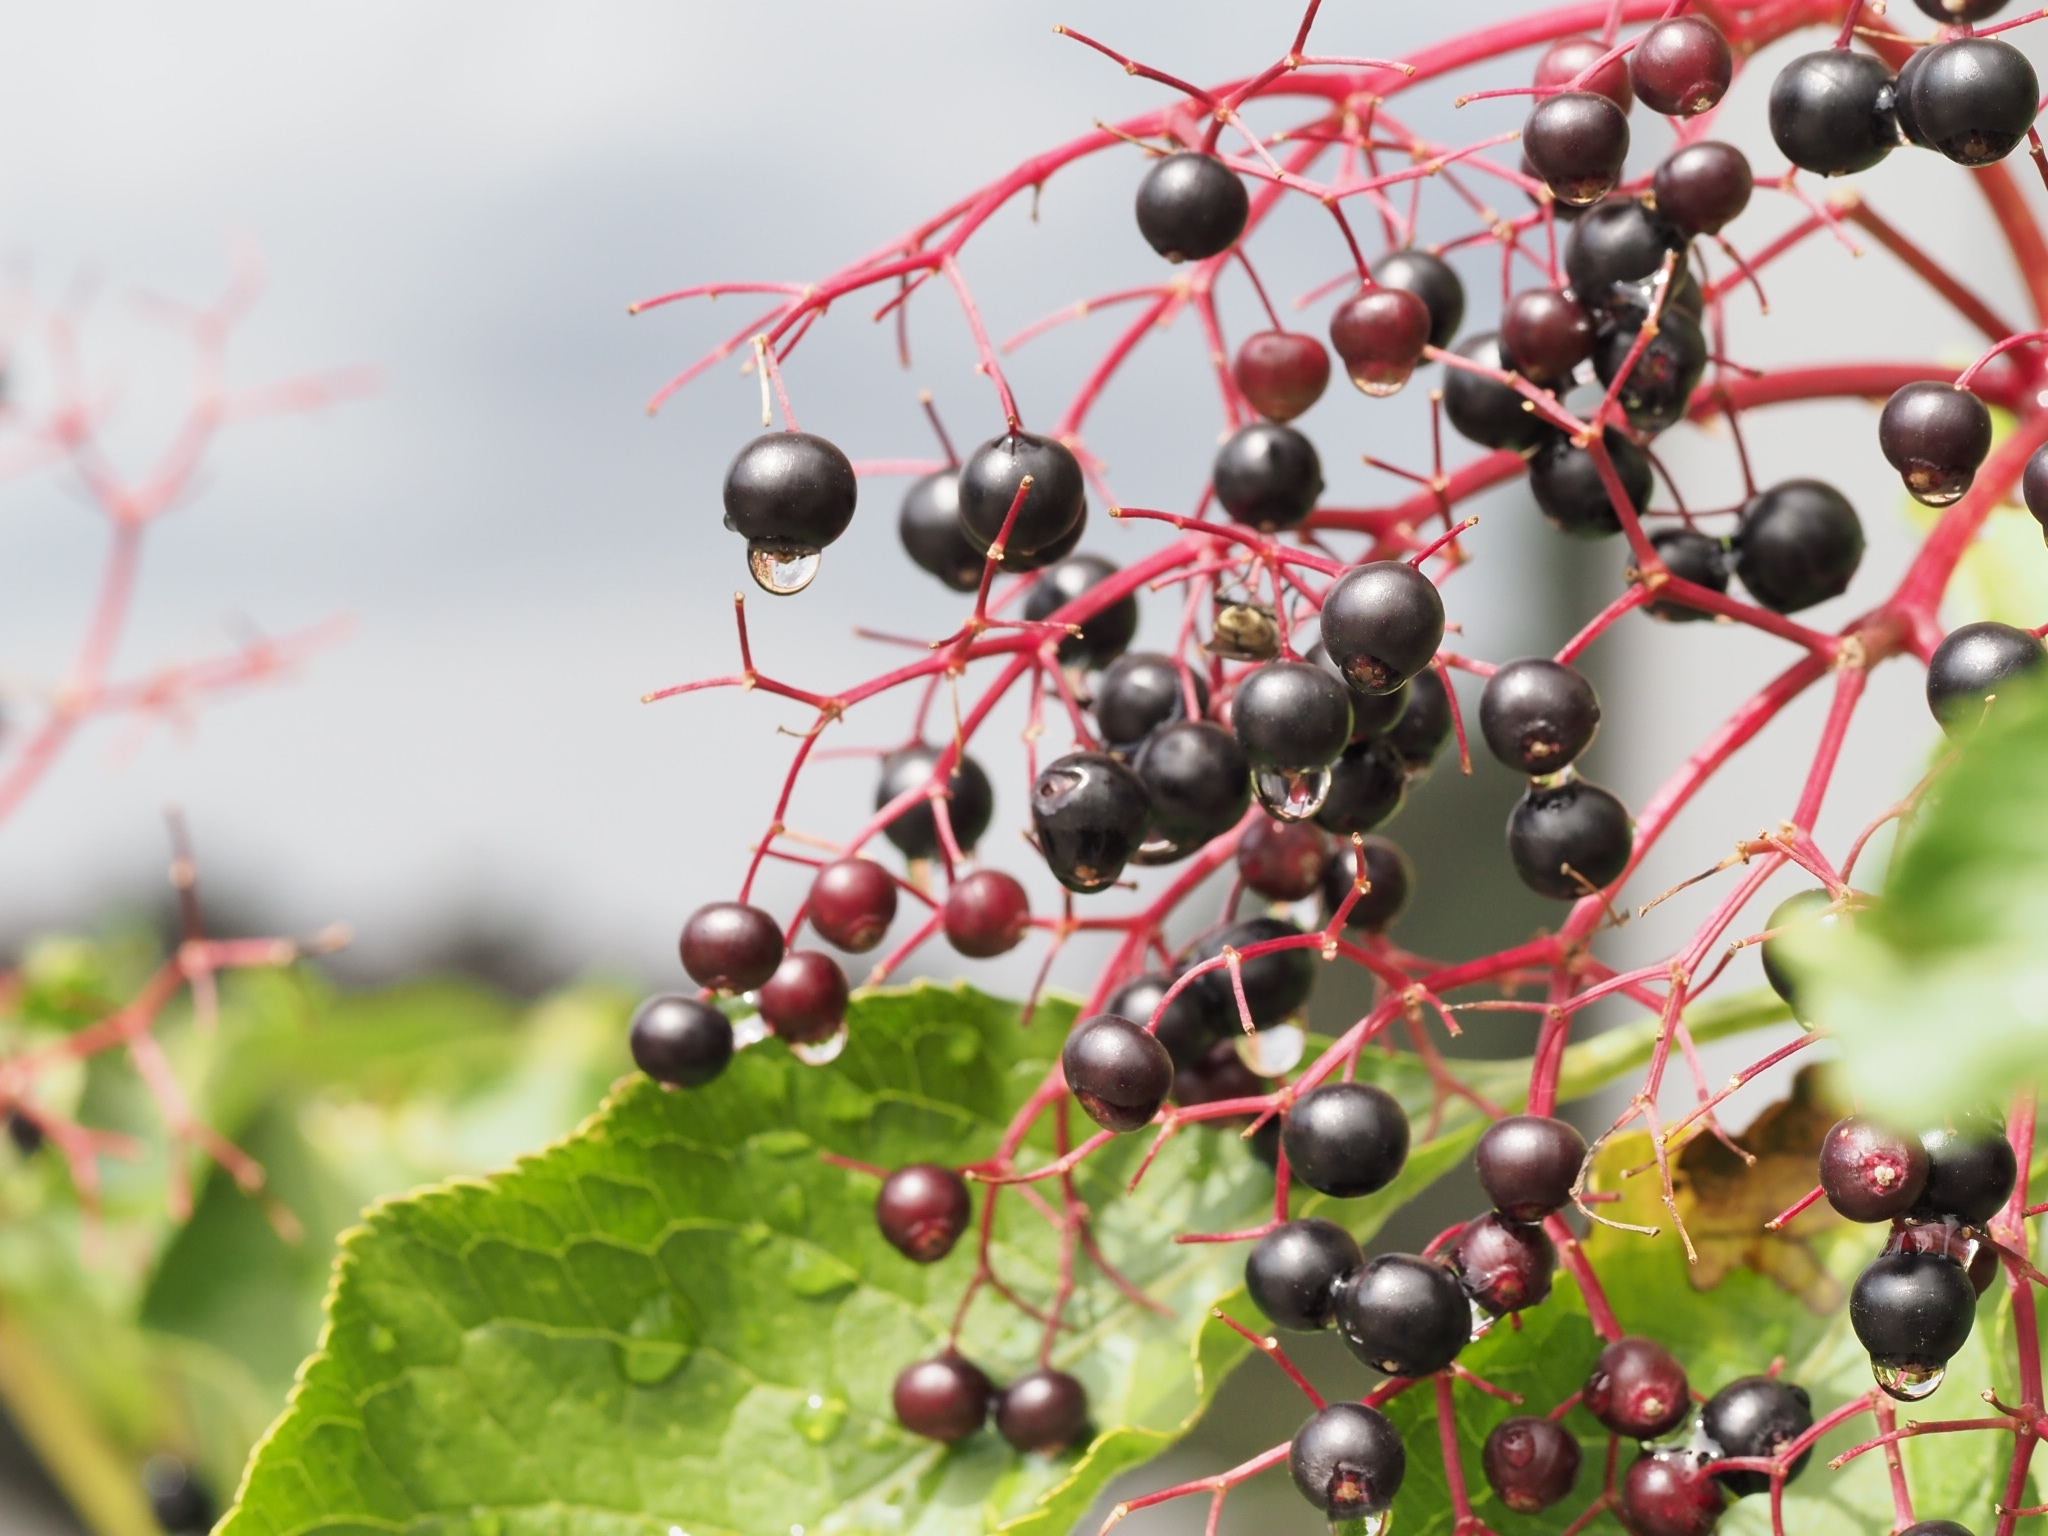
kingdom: Plantae
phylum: Tracheophyta
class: Magnoliopsida
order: Dipsacales
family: Viburnaceae
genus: Sambucus
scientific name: Sambucus nigra
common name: Elder
